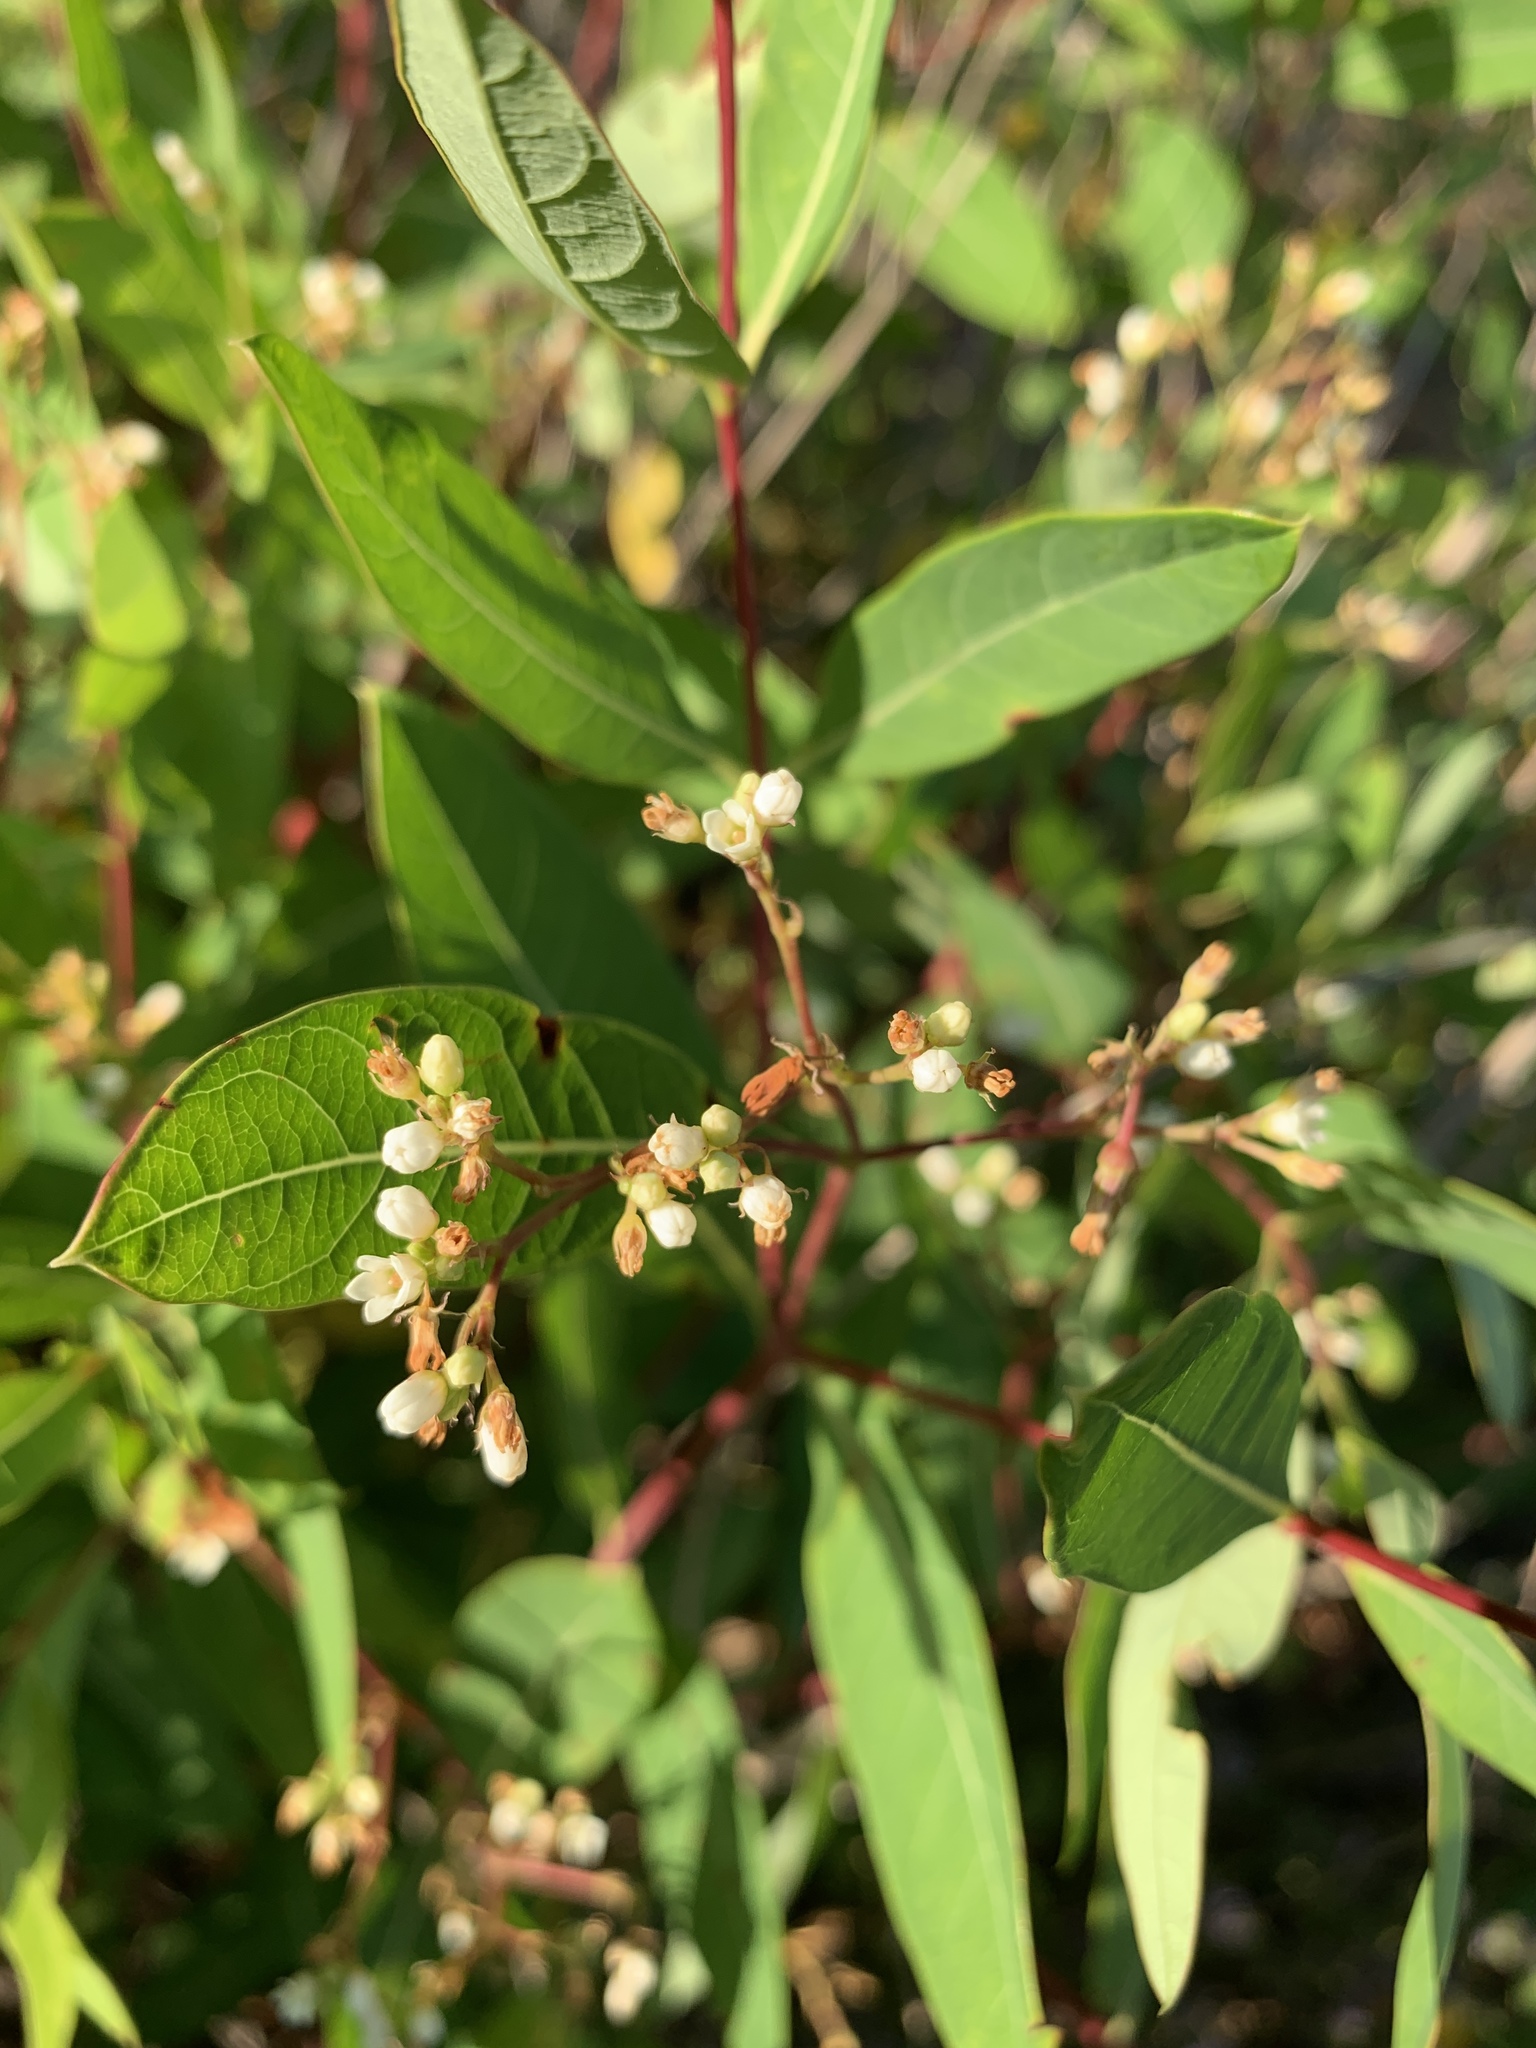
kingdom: Plantae
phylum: Tracheophyta
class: Magnoliopsida
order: Gentianales
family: Apocynaceae
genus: Apocynum
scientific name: Apocynum cannabinum
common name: Hemp dogbane
